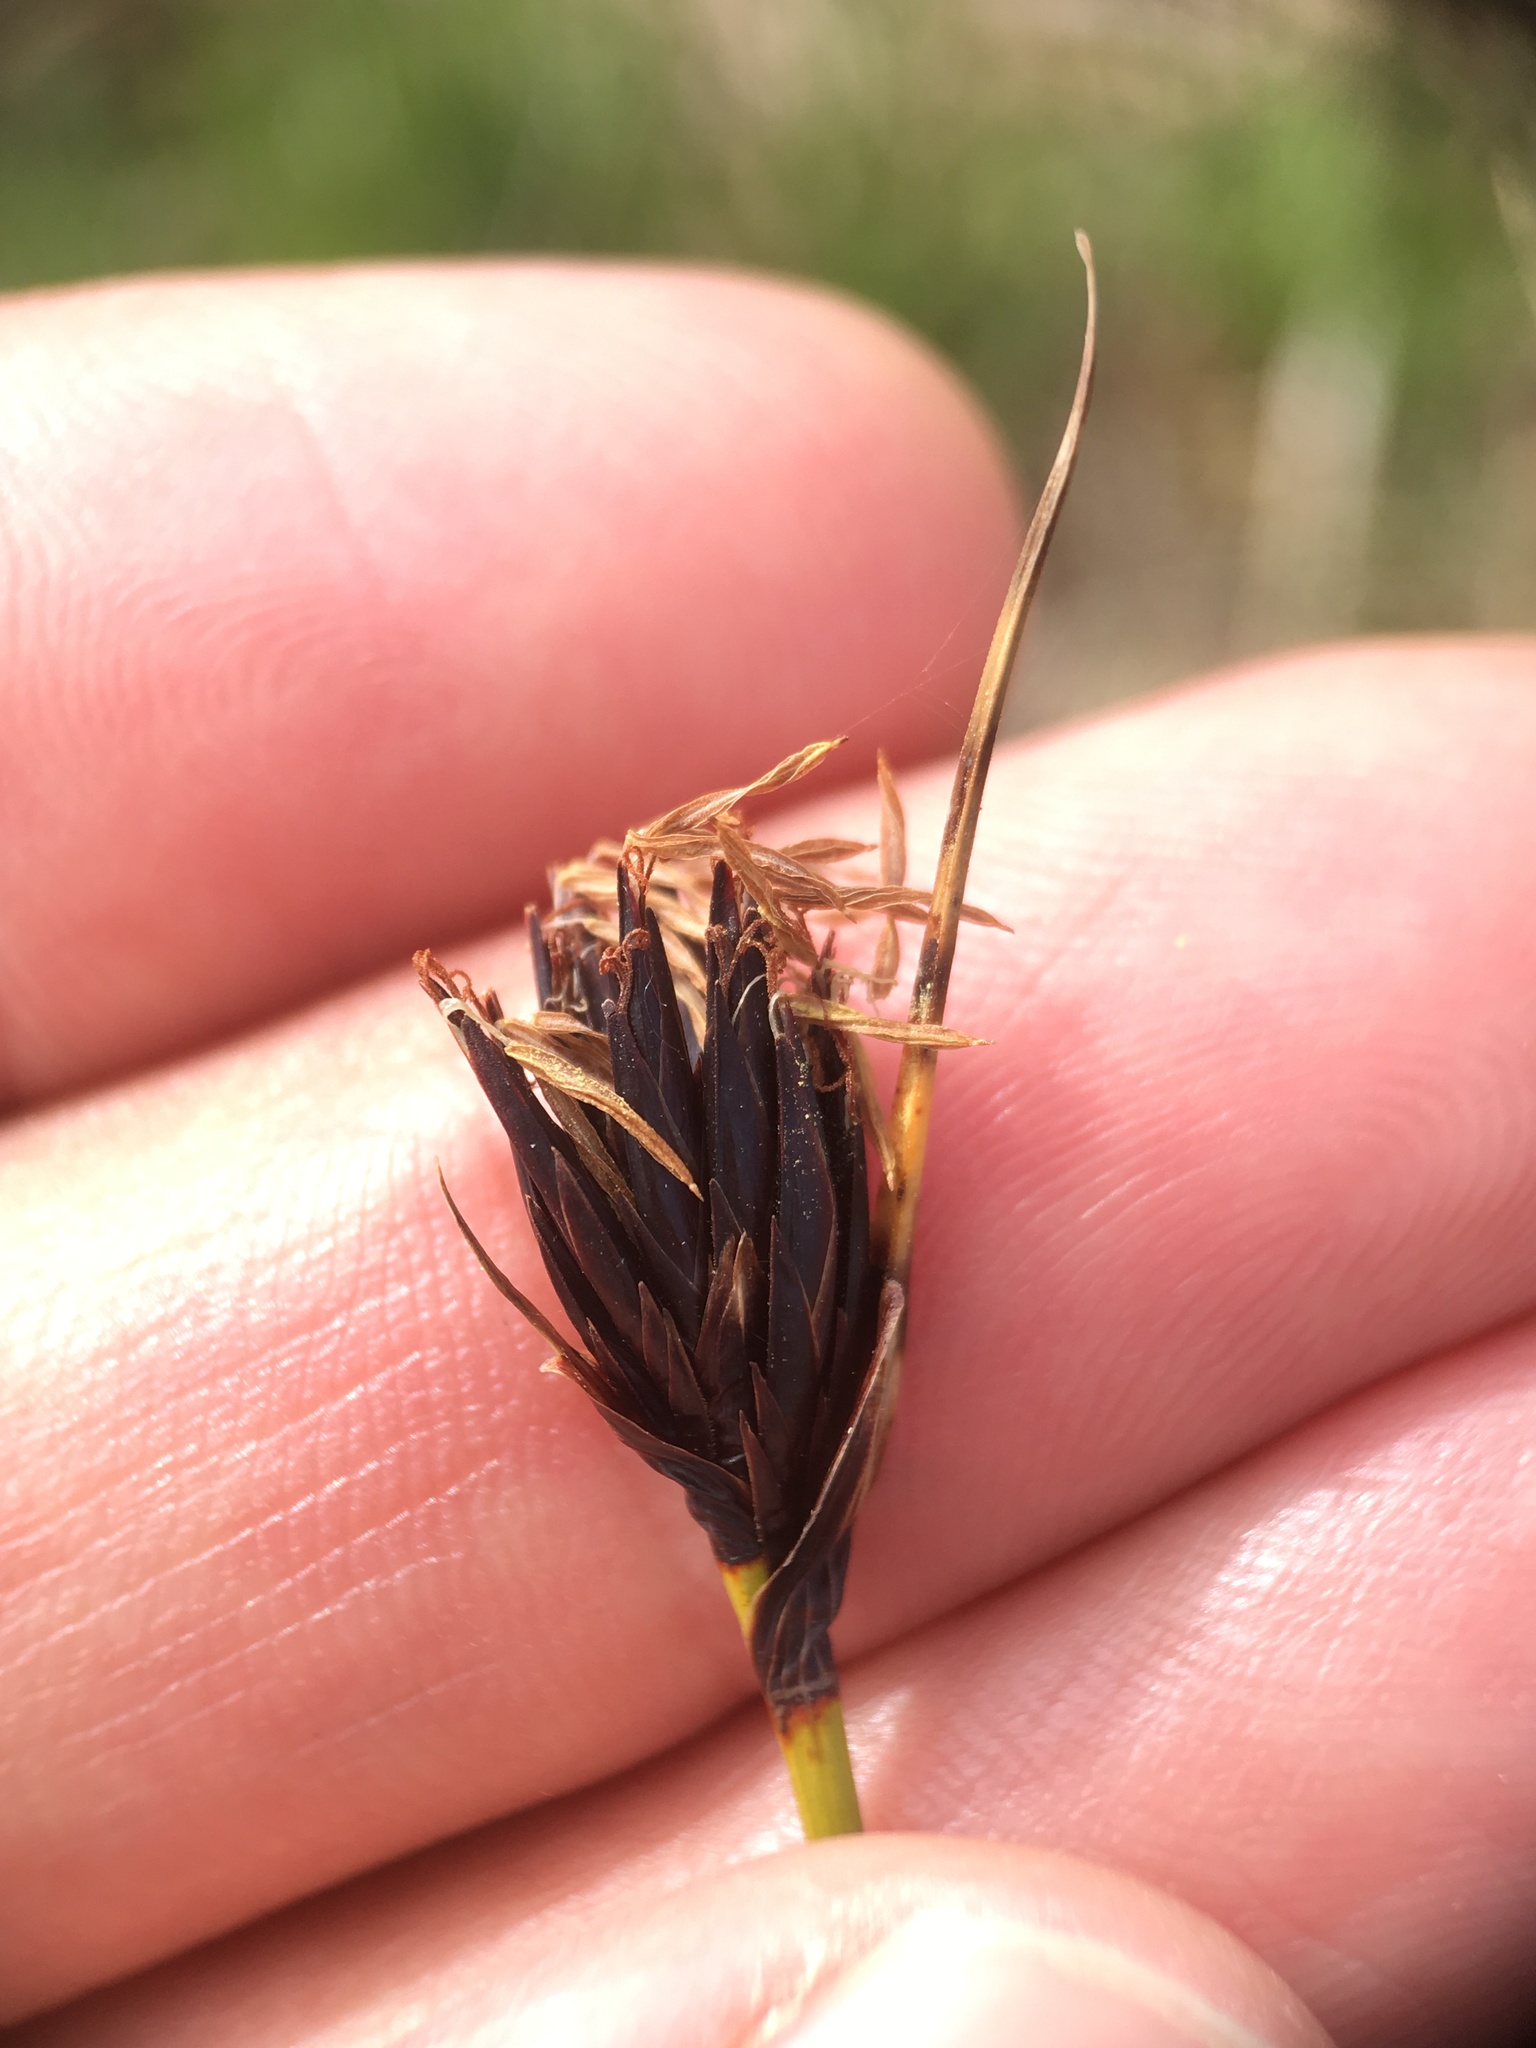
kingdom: Plantae
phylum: Tracheophyta
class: Liliopsida
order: Poales
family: Cyperaceae
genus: Schoenus
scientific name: Schoenus nigricans
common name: Black bog-rush
